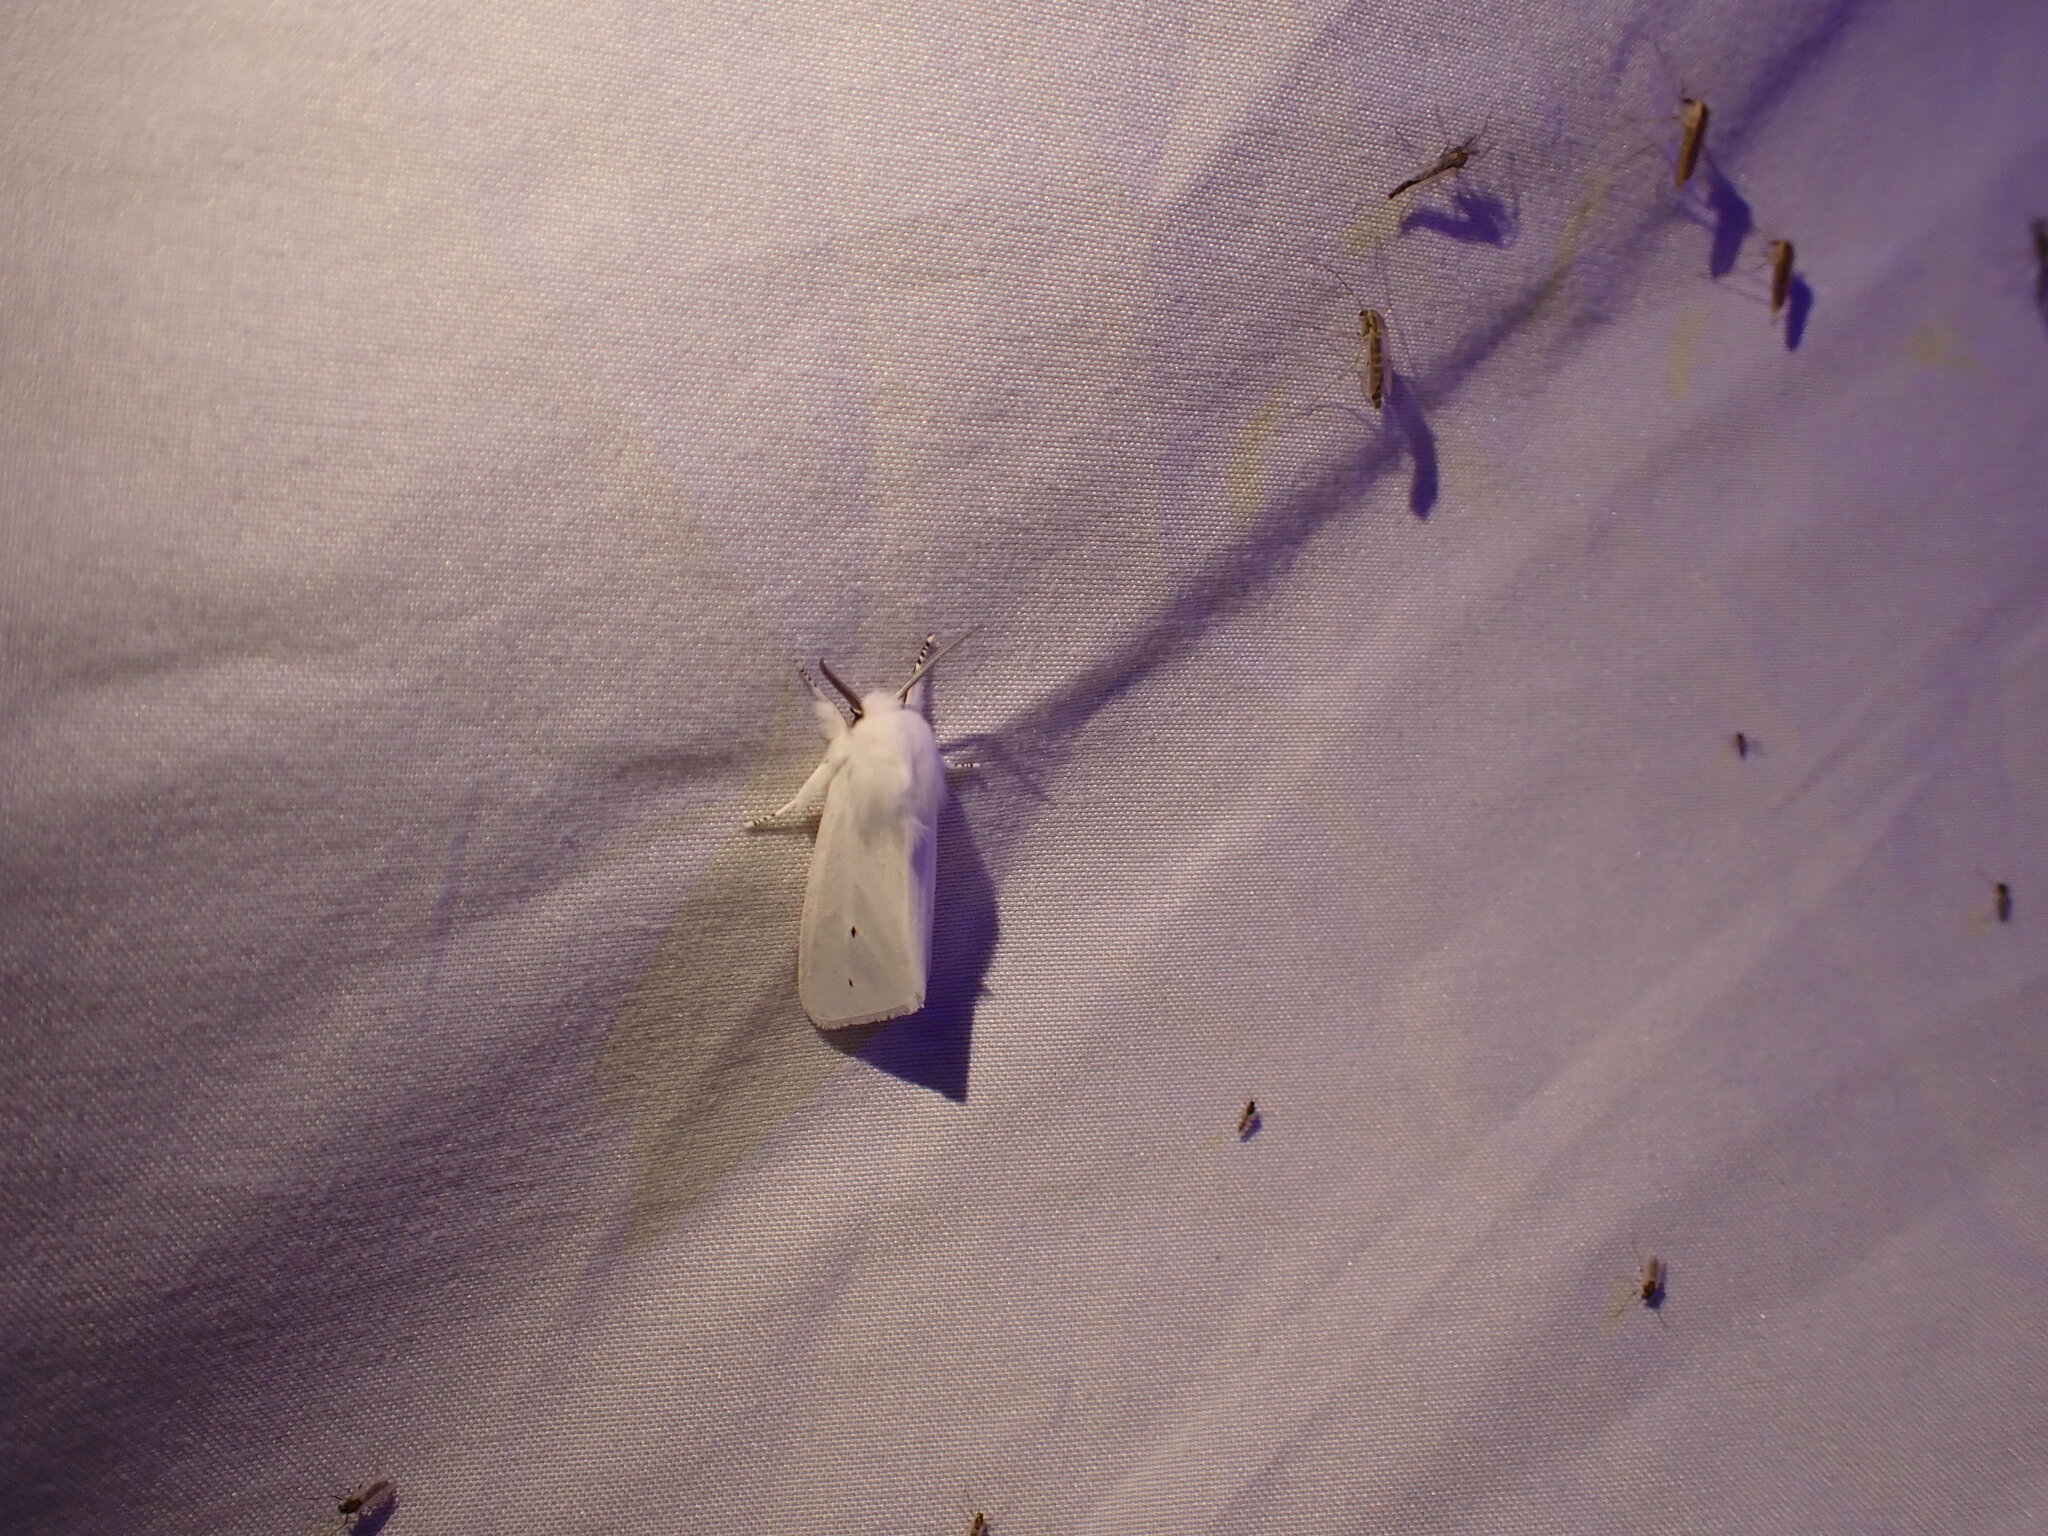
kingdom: Animalia
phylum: Arthropoda
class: Insecta
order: Lepidoptera
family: Erebidae
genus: Spilosoma
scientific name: Spilosoma virginica
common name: Virginia tiger moth
